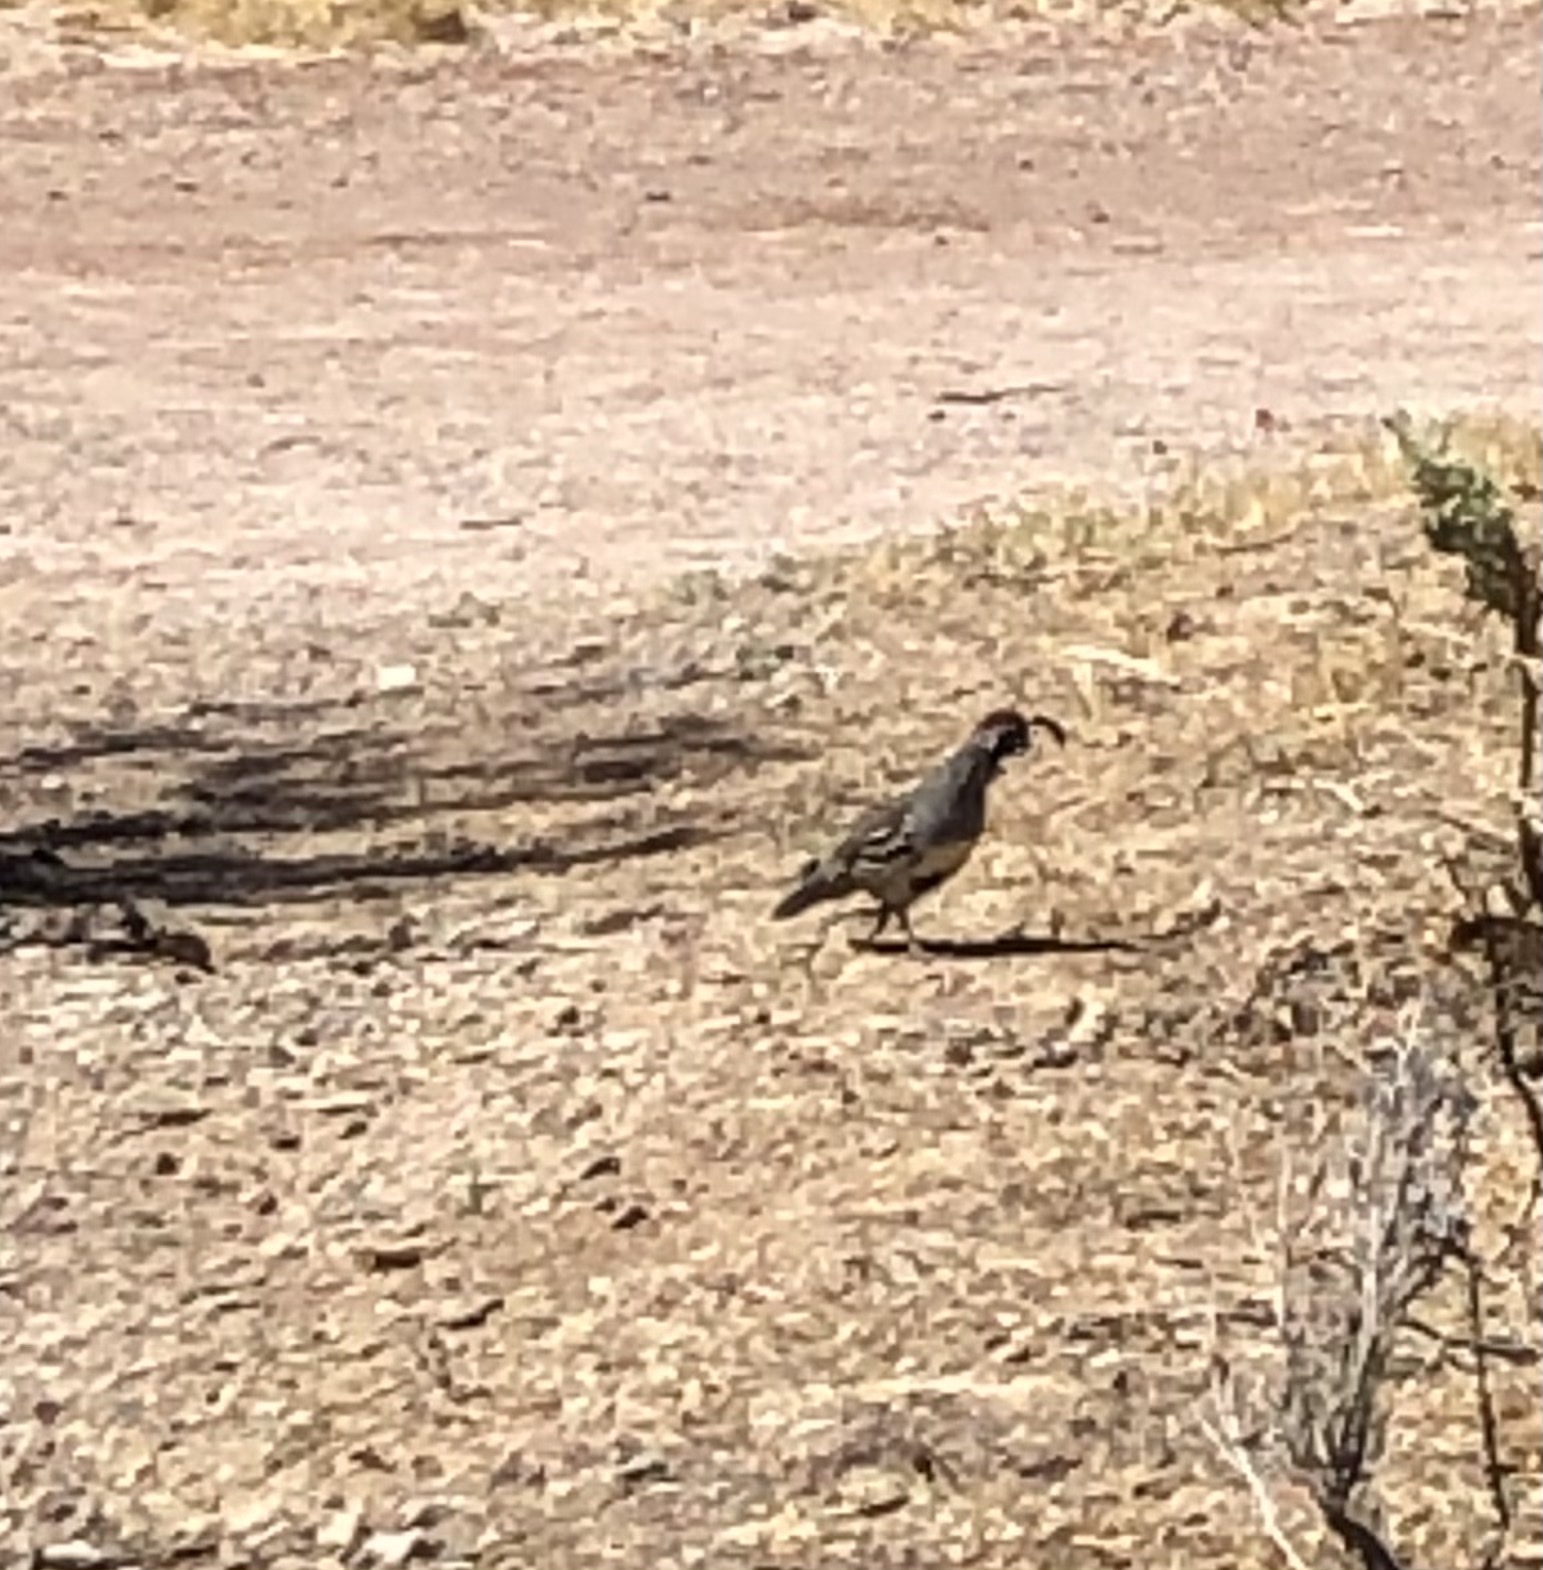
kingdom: Animalia
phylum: Chordata
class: Aves
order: Galliformes
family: Odontophoridae
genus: Callipepla
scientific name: Callipepla gambelii
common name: Gambel's quail
